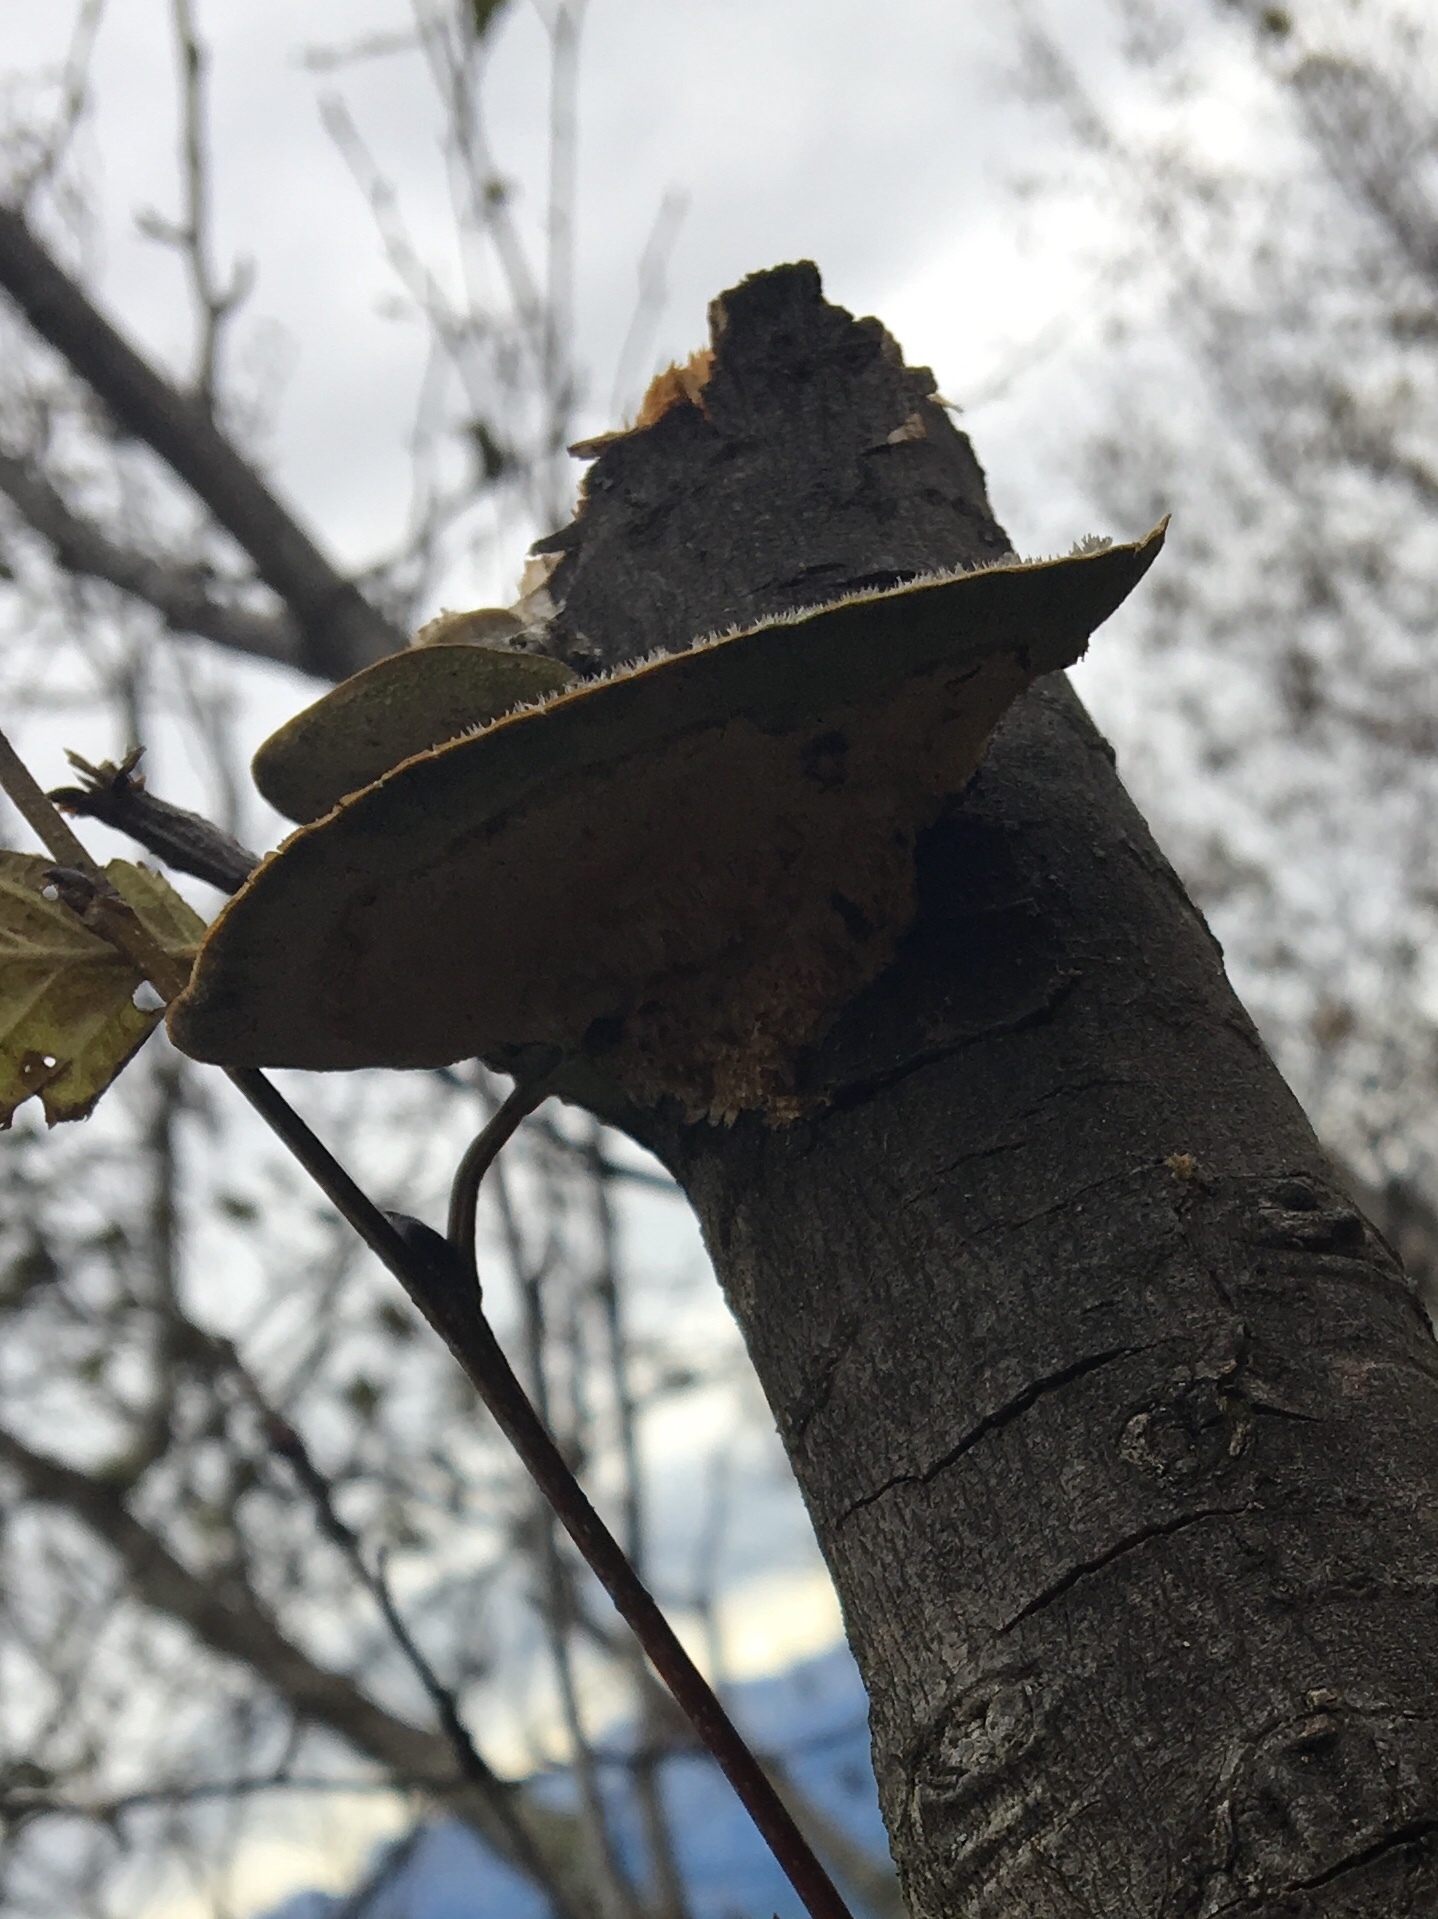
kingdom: Fungi
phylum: Basidiomycota
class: Agaricomycetes
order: Polyporales
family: Polyporaceae
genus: Trametes
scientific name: Trametes hirsuta
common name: Hairy bracket
